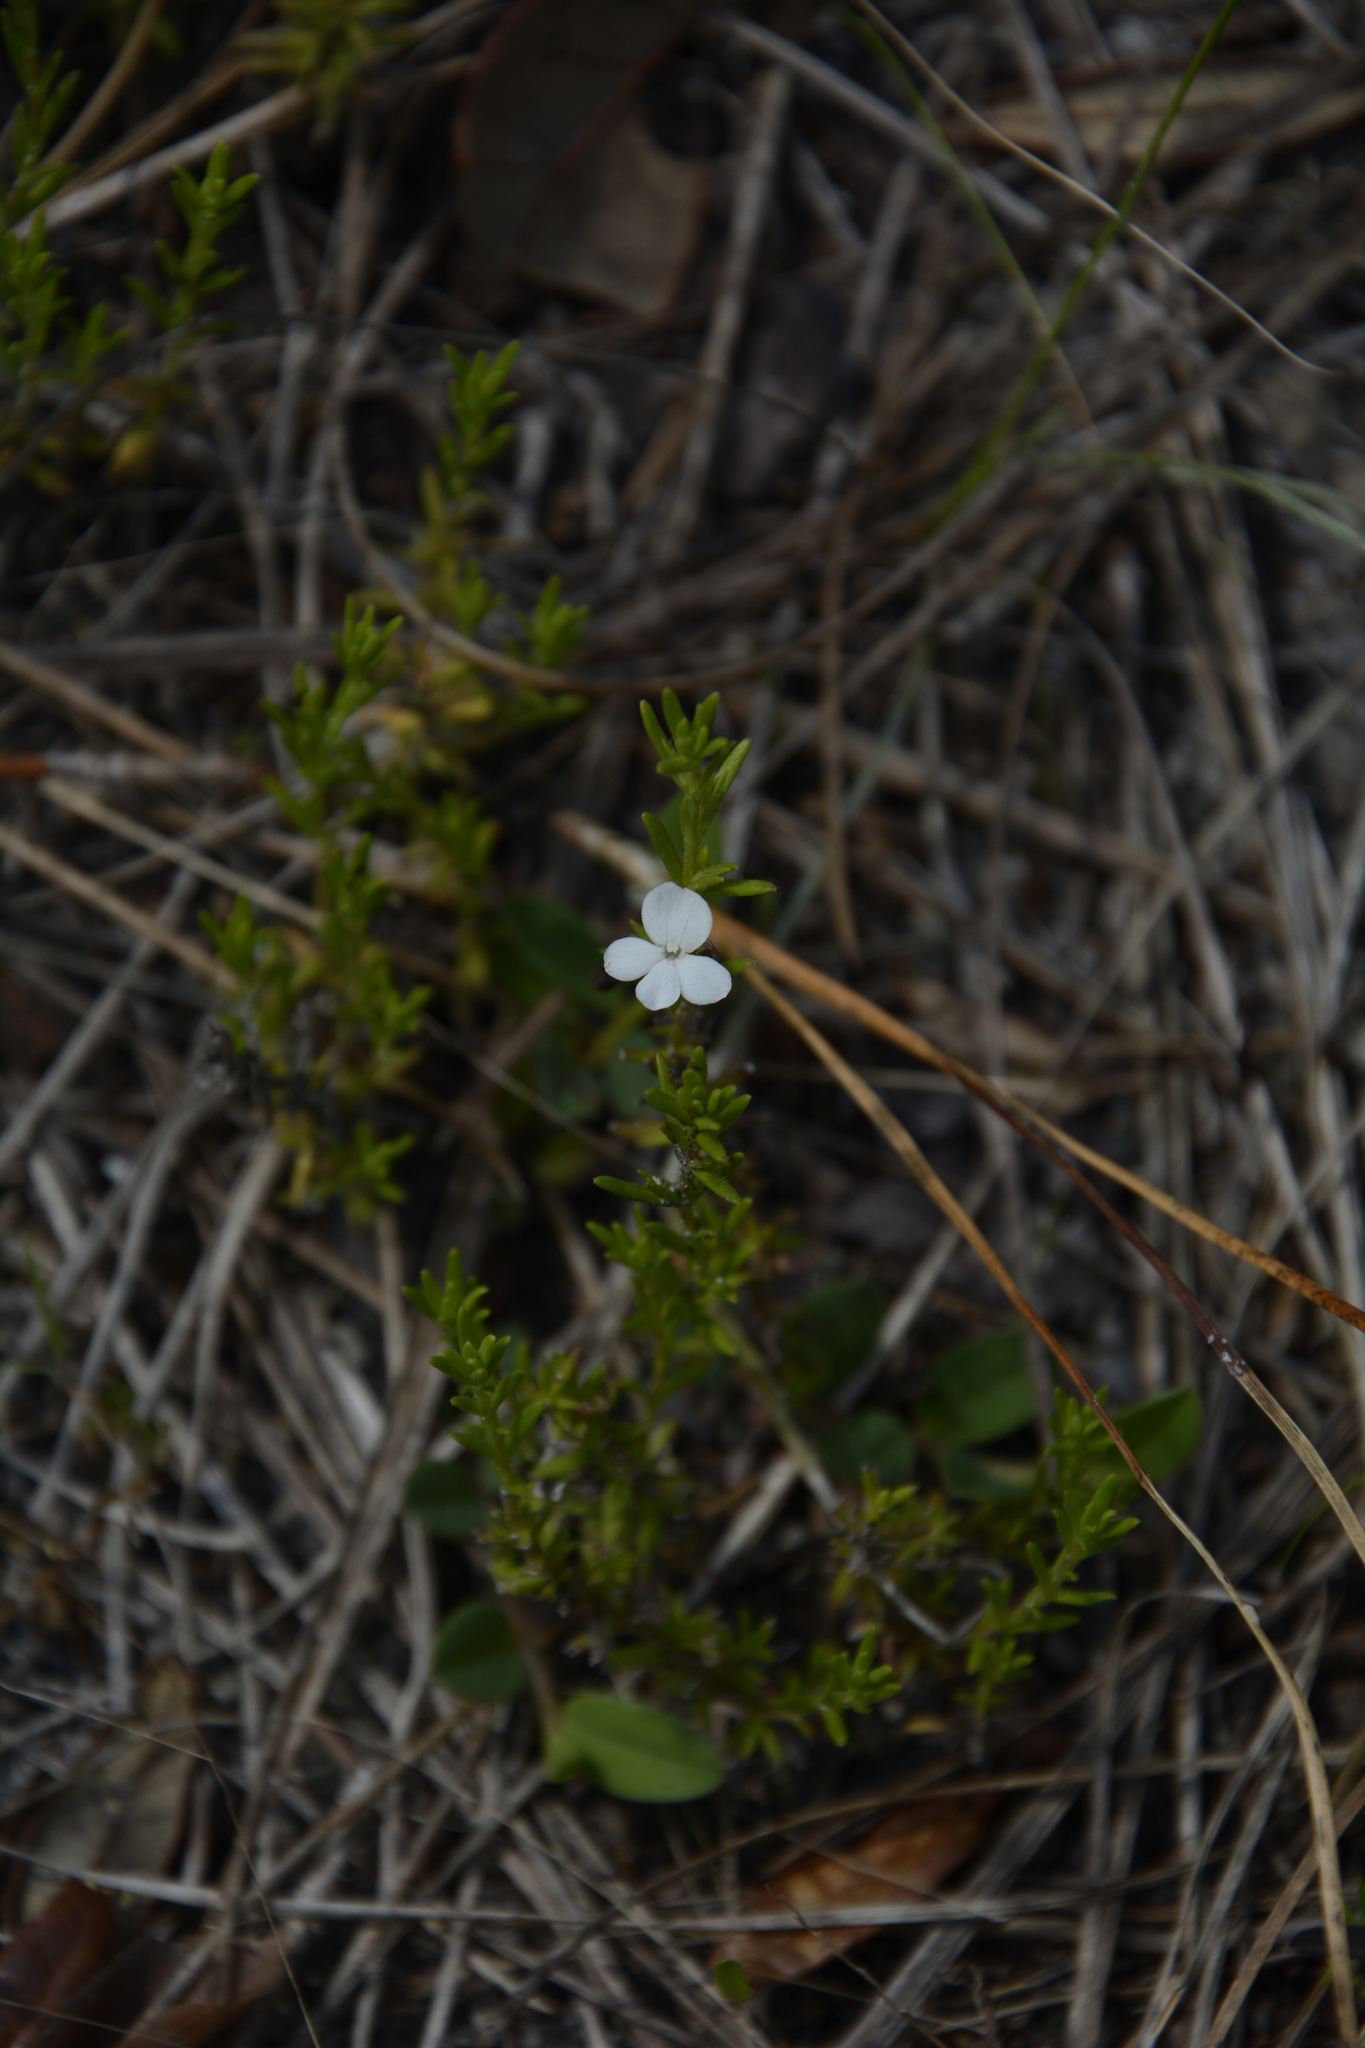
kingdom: Plantae
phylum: Tracheophyta
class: Magnoliopsida
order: Lamiales
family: Plantaginaceae
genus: Gratiola
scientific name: Gratiola hispida
